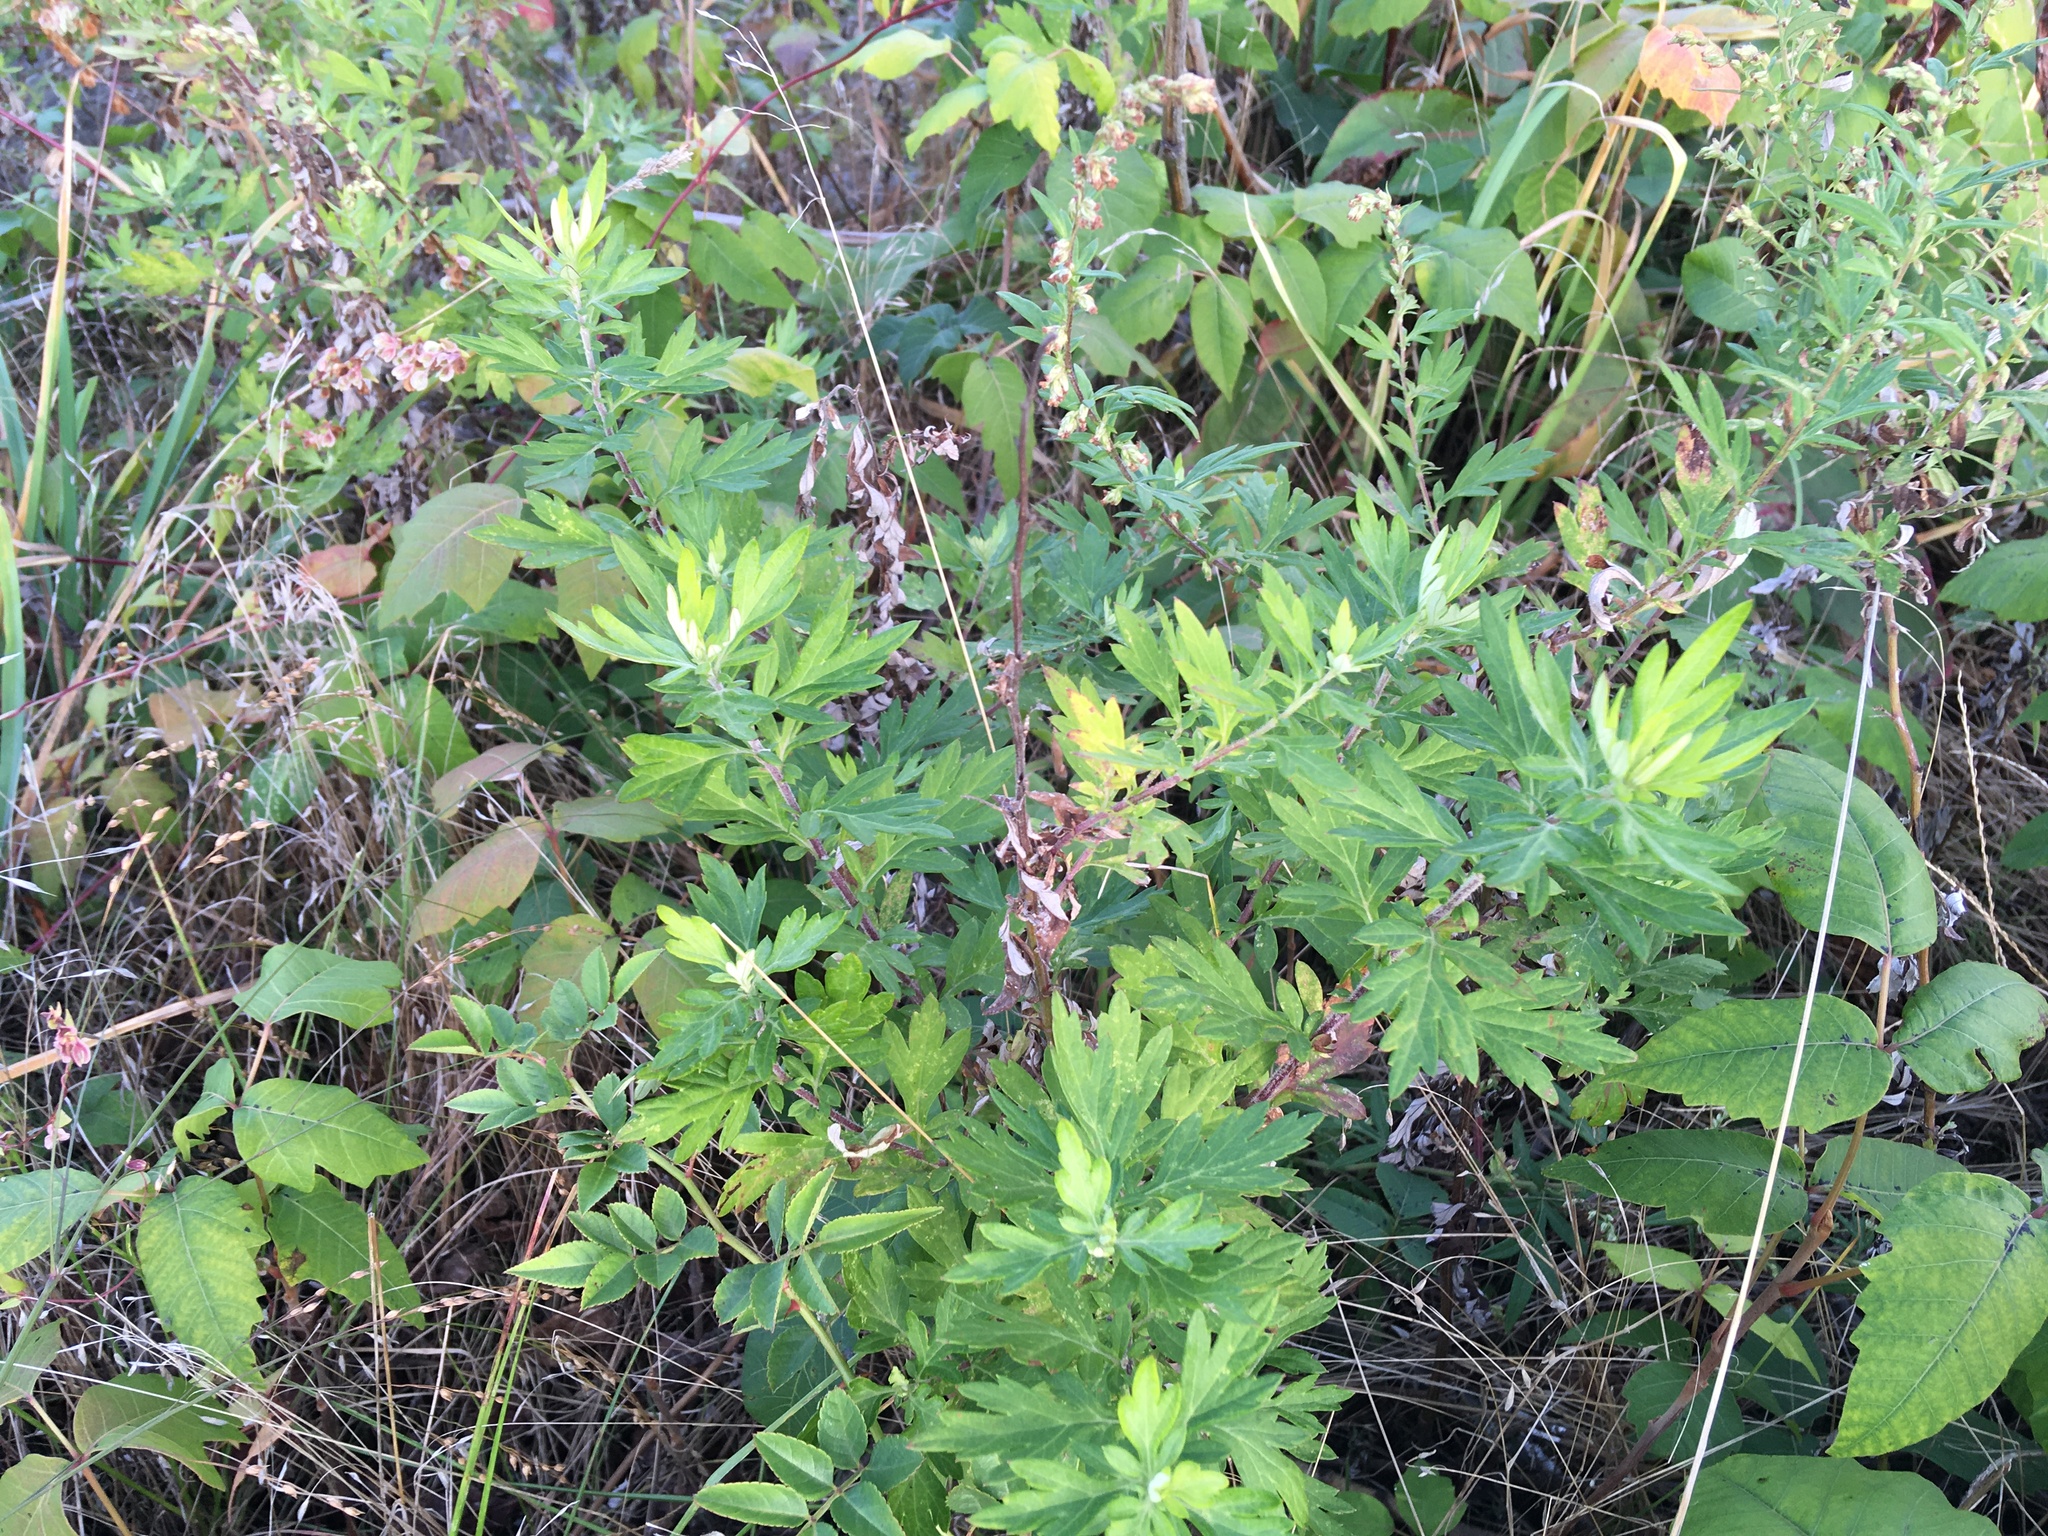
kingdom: Plantae
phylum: Tracheophyta
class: Magnoliopsida
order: Asterales
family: Asteraceae
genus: Artemisia
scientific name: Artemisia vulgaris
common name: Mugwort
